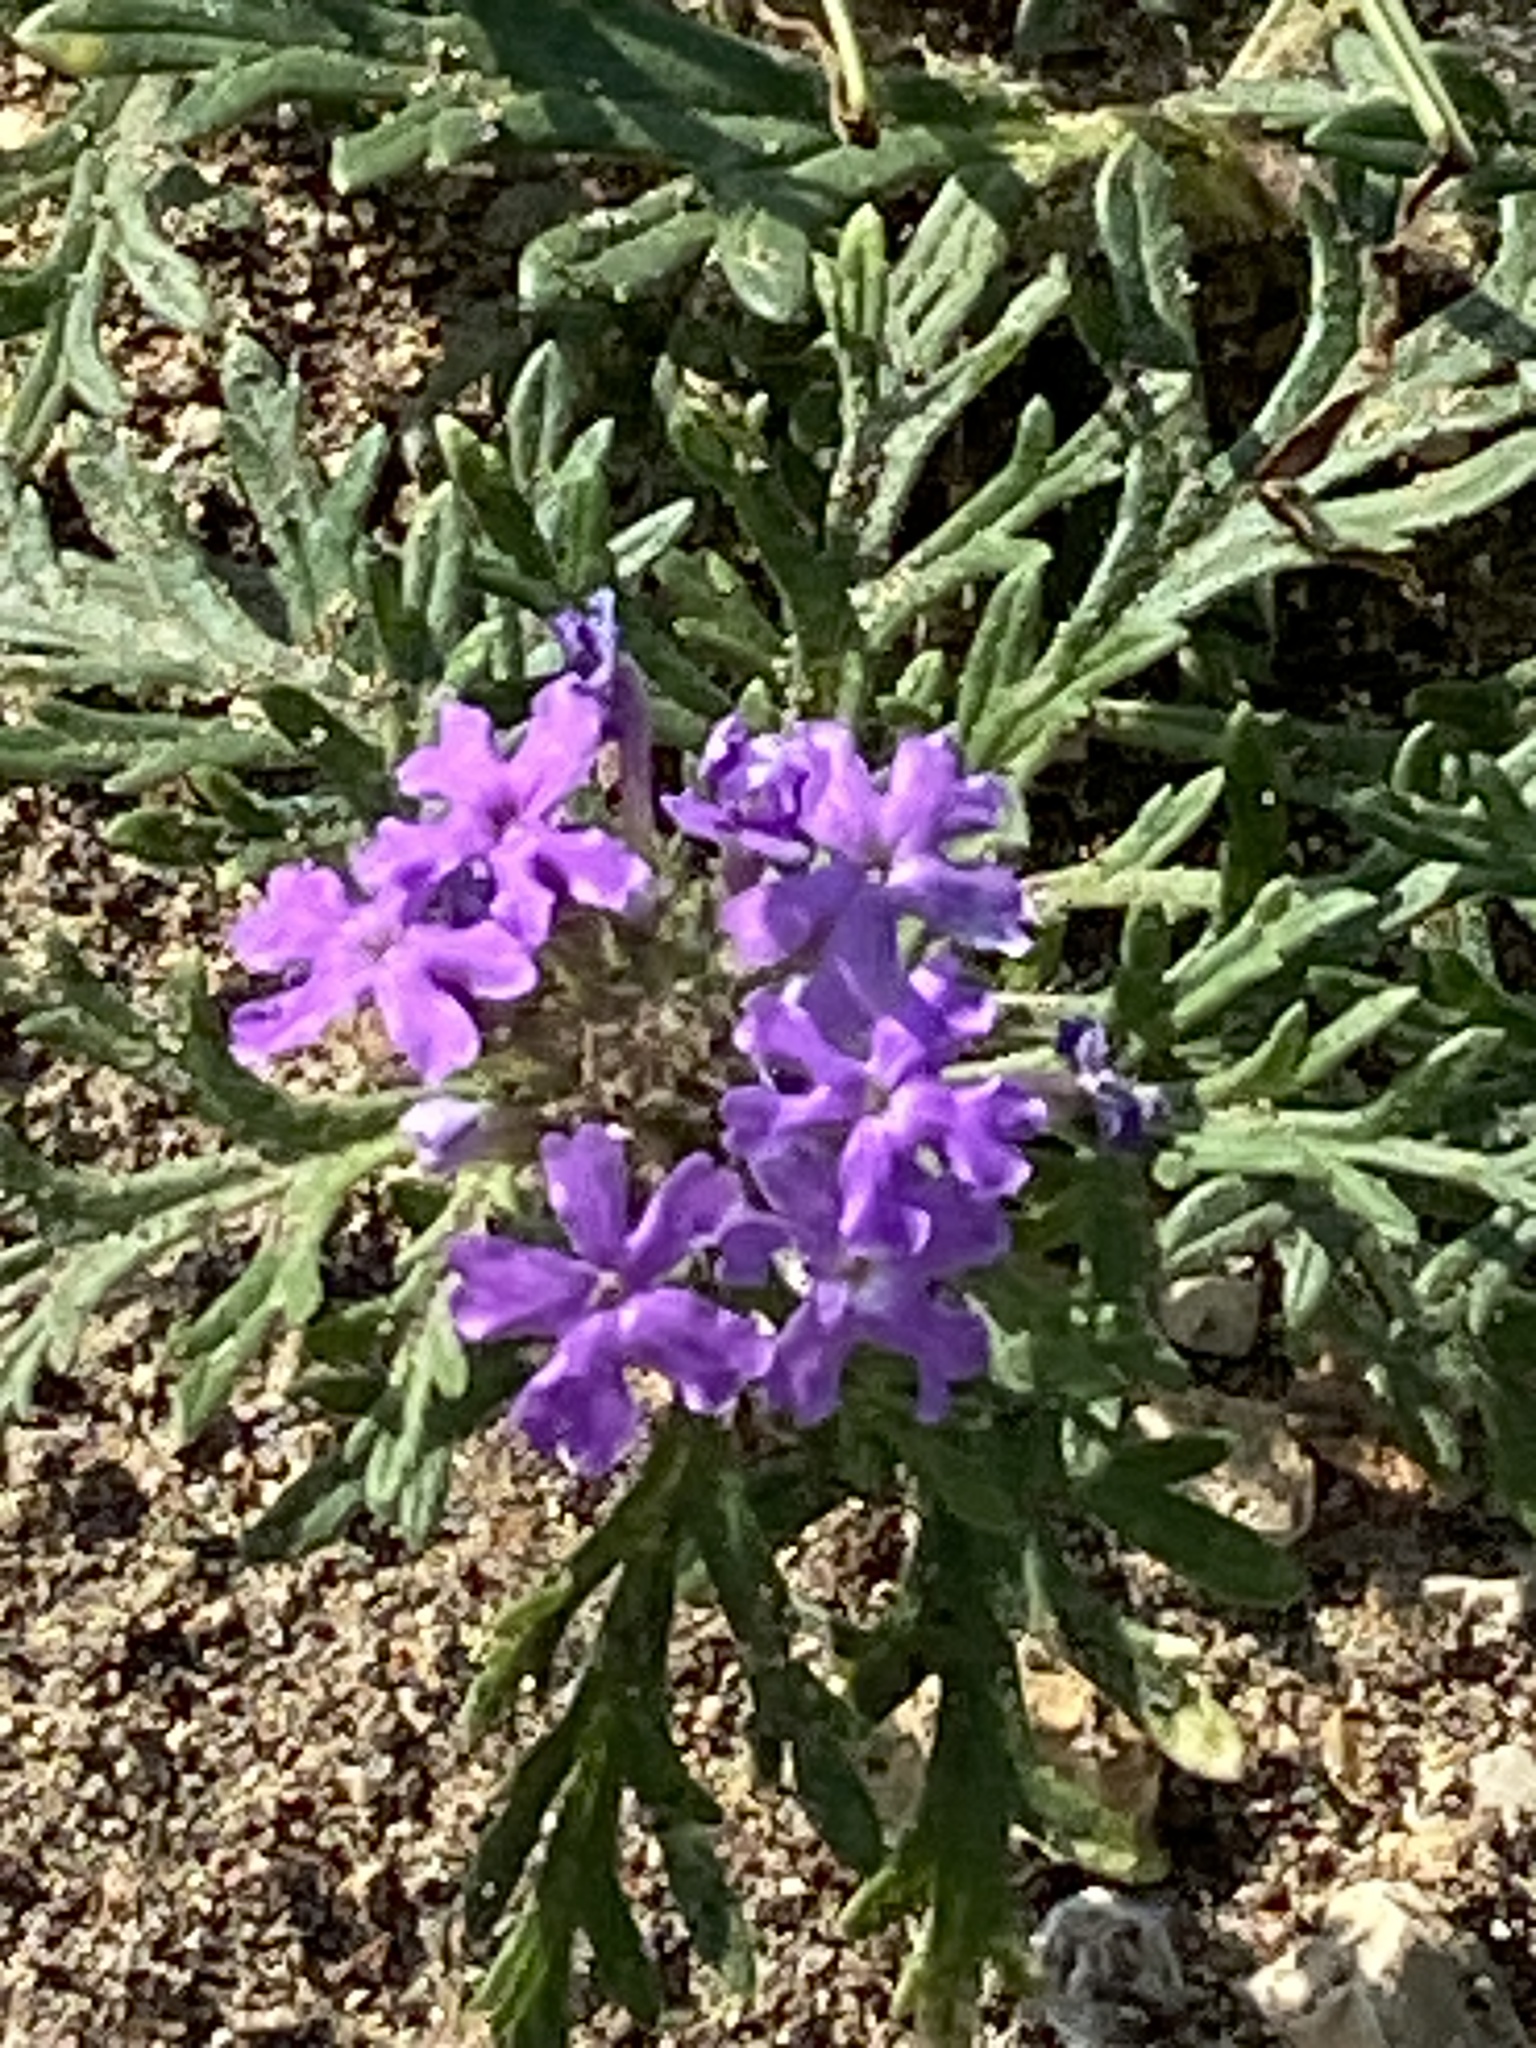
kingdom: Plantae
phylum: Tracheophyta
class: Magnoliopsida
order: Lamiales
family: Verbenaceae
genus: Verbena
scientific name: Verbena bipinnatifida
